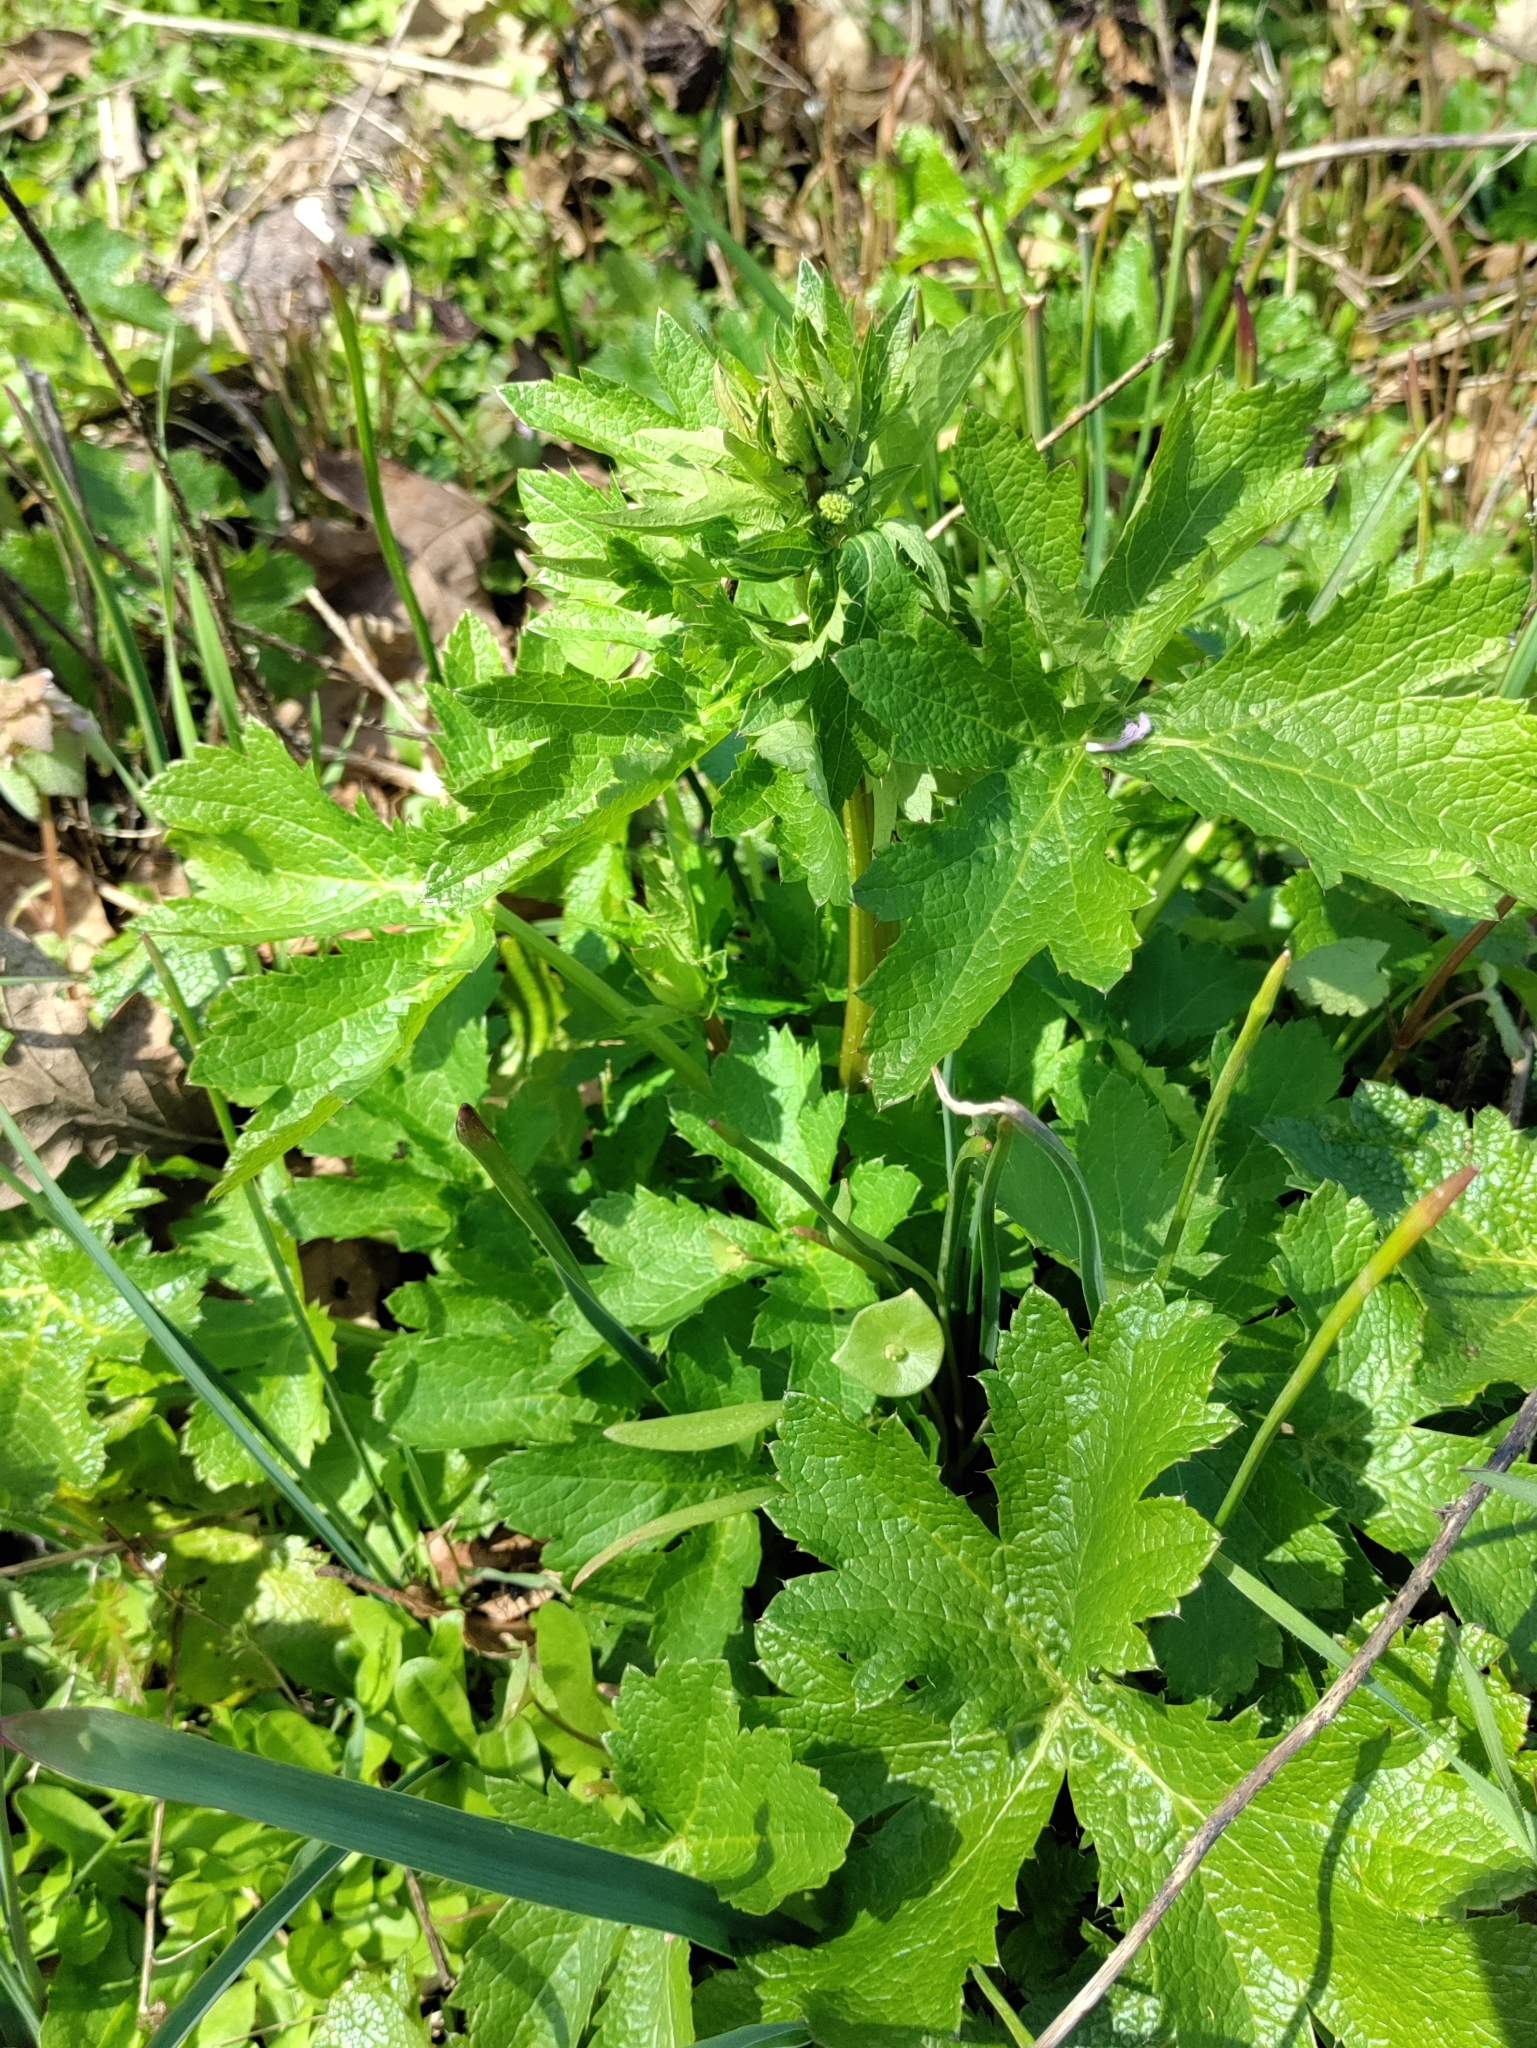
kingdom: Plantae
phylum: Tracheophyta
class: Magnoliopsida
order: Apiales
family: Apiaceae
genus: Sanicula
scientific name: Sanicula crassicaulis
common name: Western snakeroot
